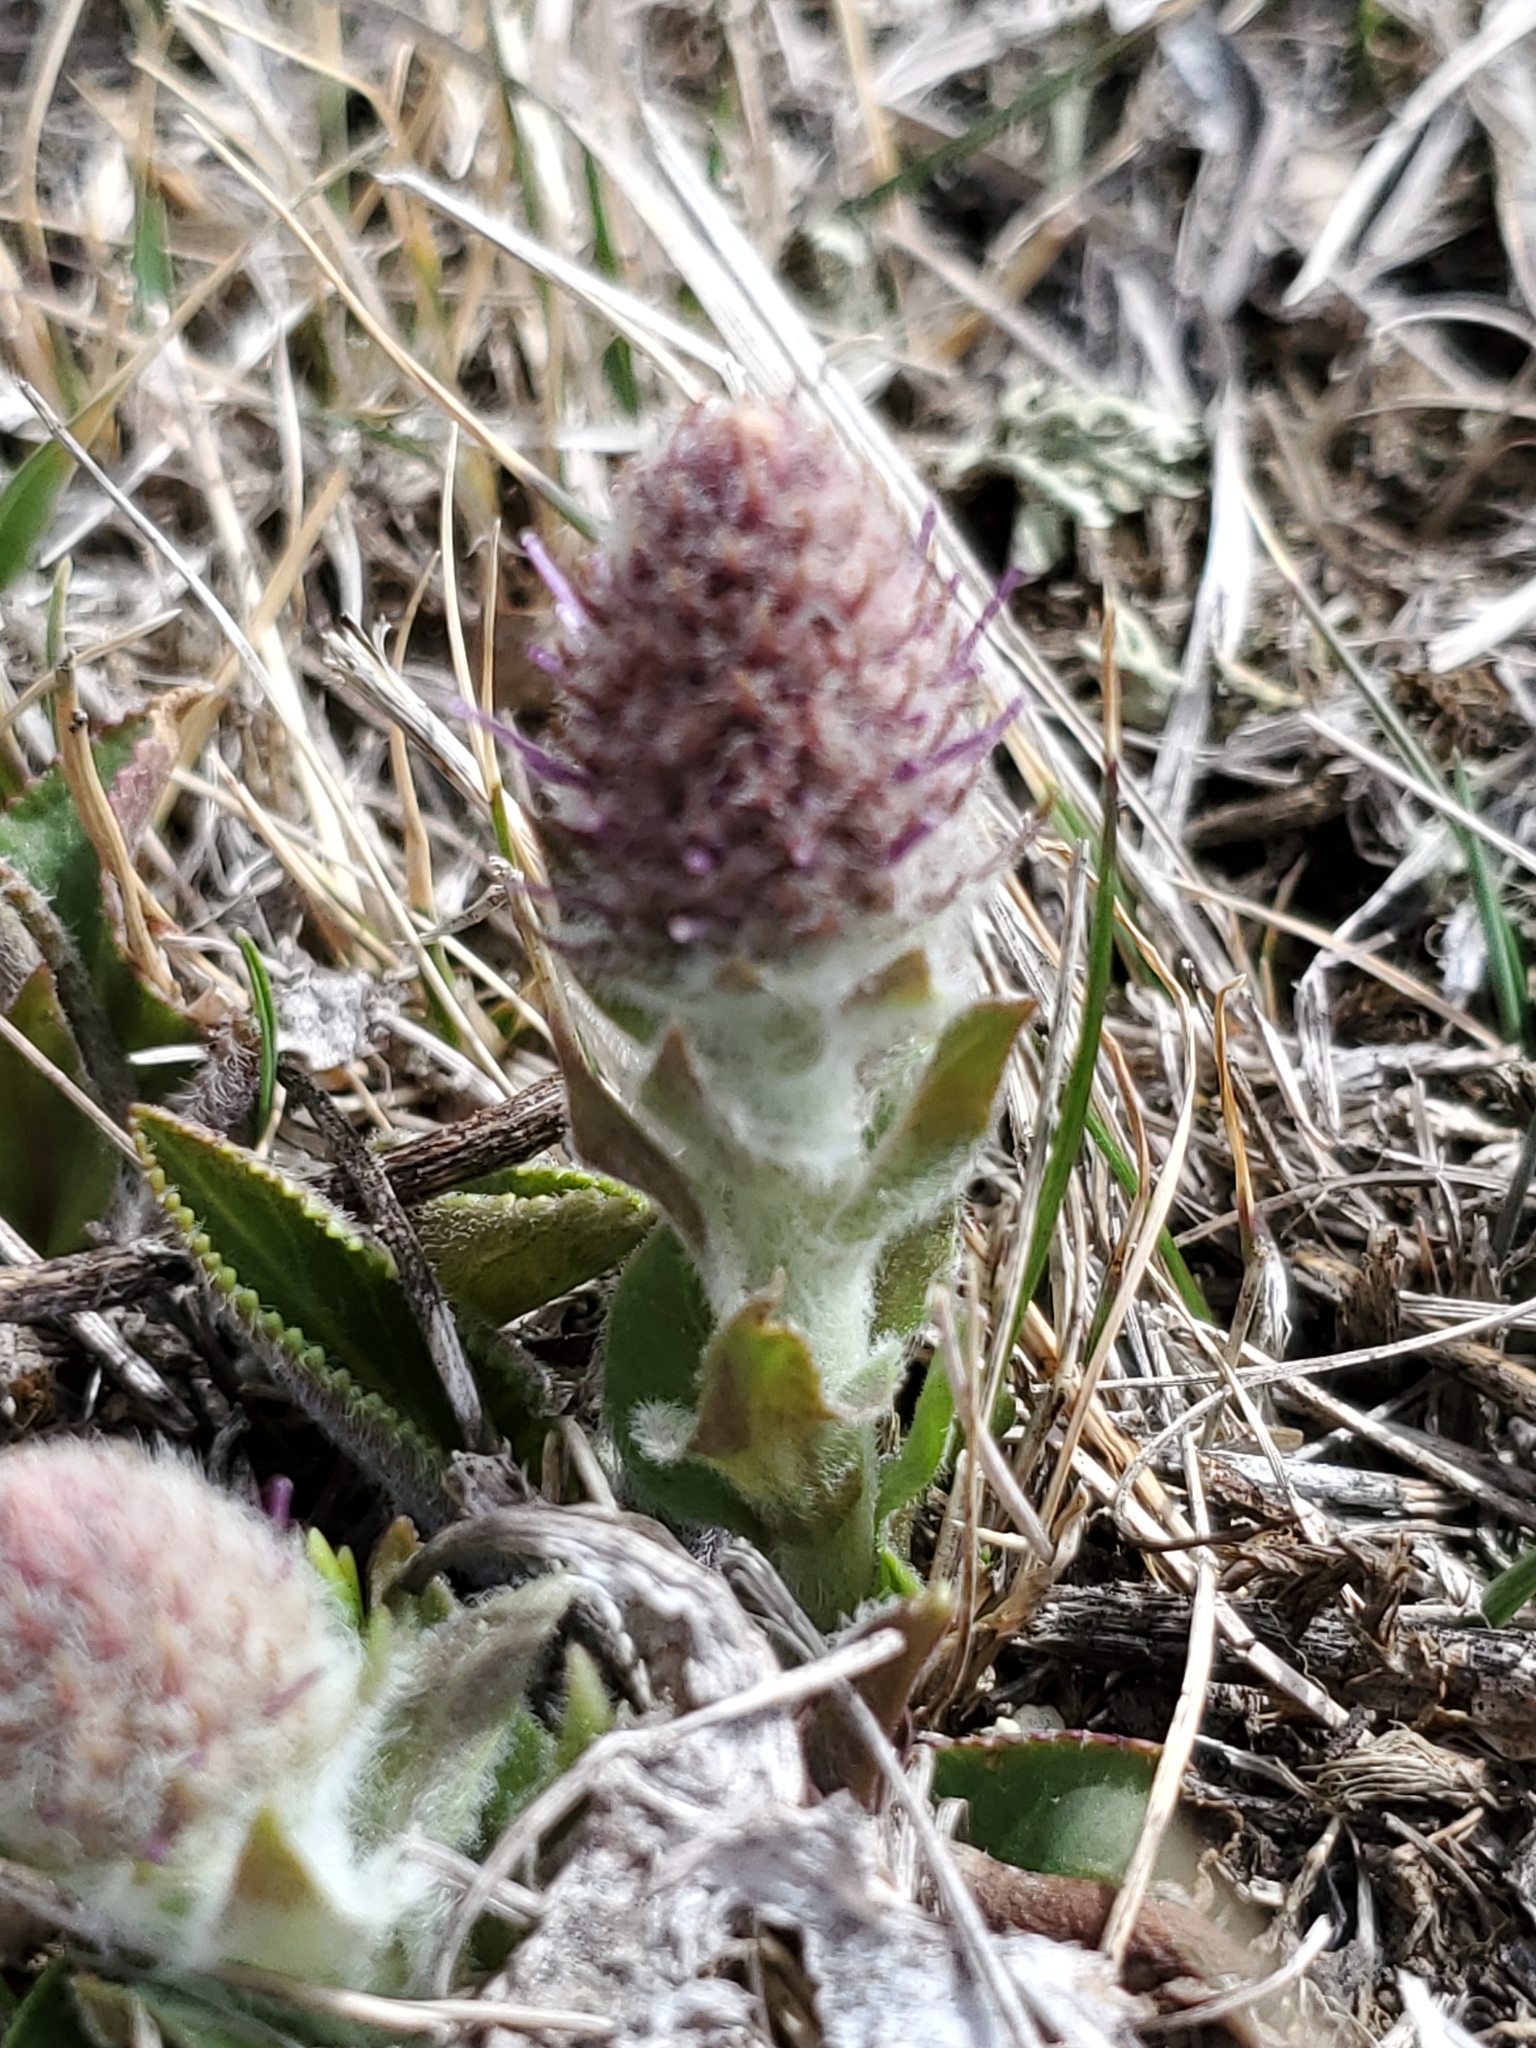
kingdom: Plantae
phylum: Tracheophyta
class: Magnoliopsida
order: Lamiales
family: Plantaginaceae
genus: Synthyris
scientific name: Synthyris wyomingensis
